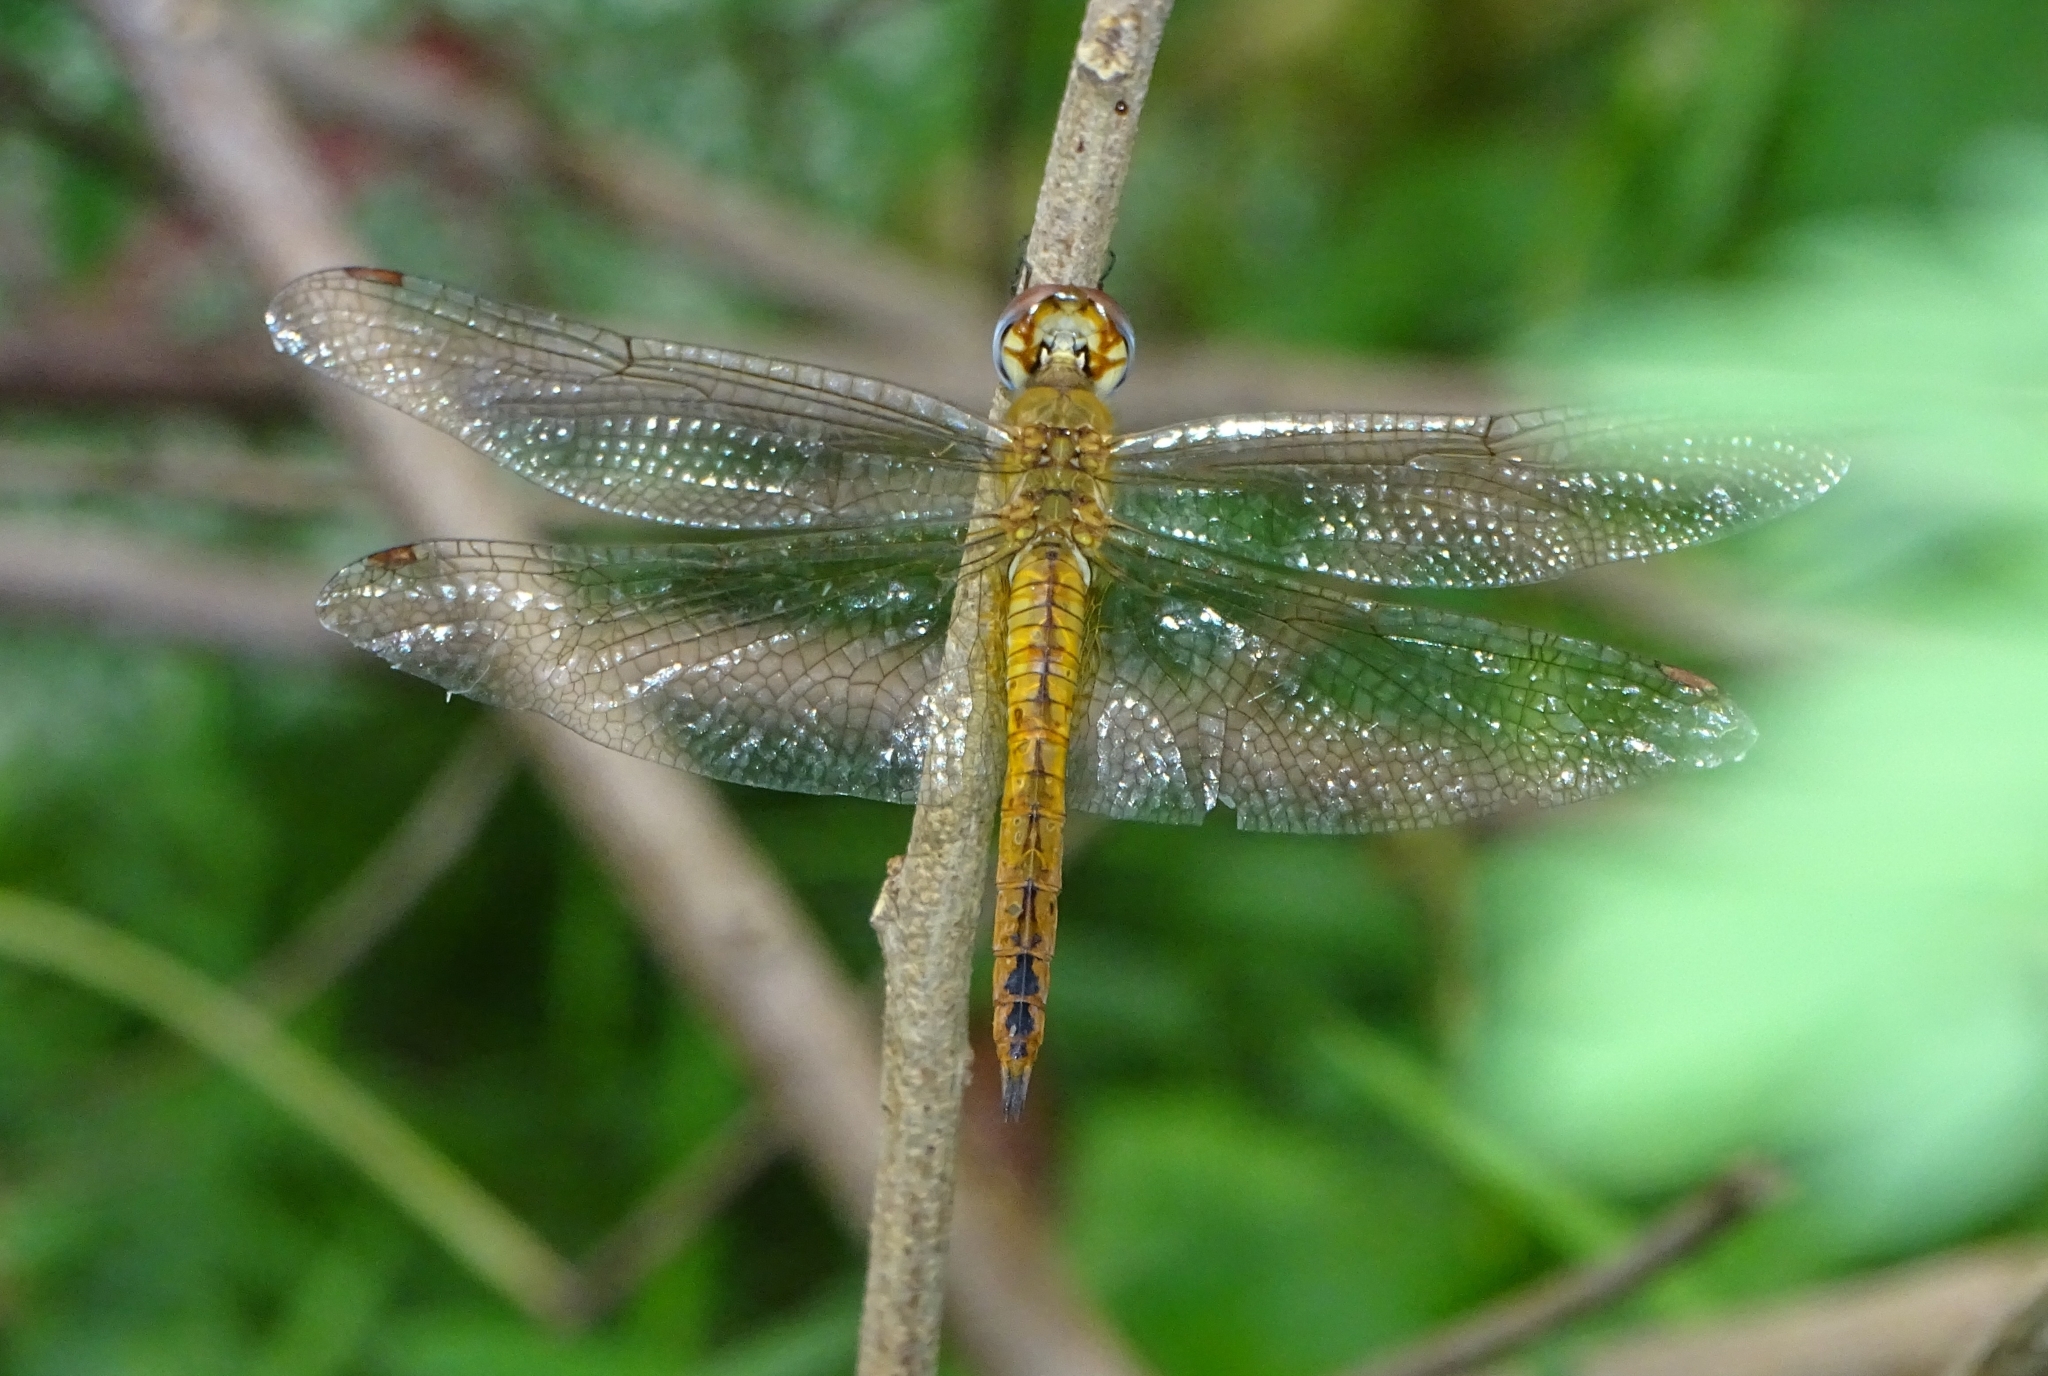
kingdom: Animalia
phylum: Arthropoda
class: Insecta
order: Odonata
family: Libellulidae
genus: Pantala
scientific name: Pantala flavescens
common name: Wandering glider
